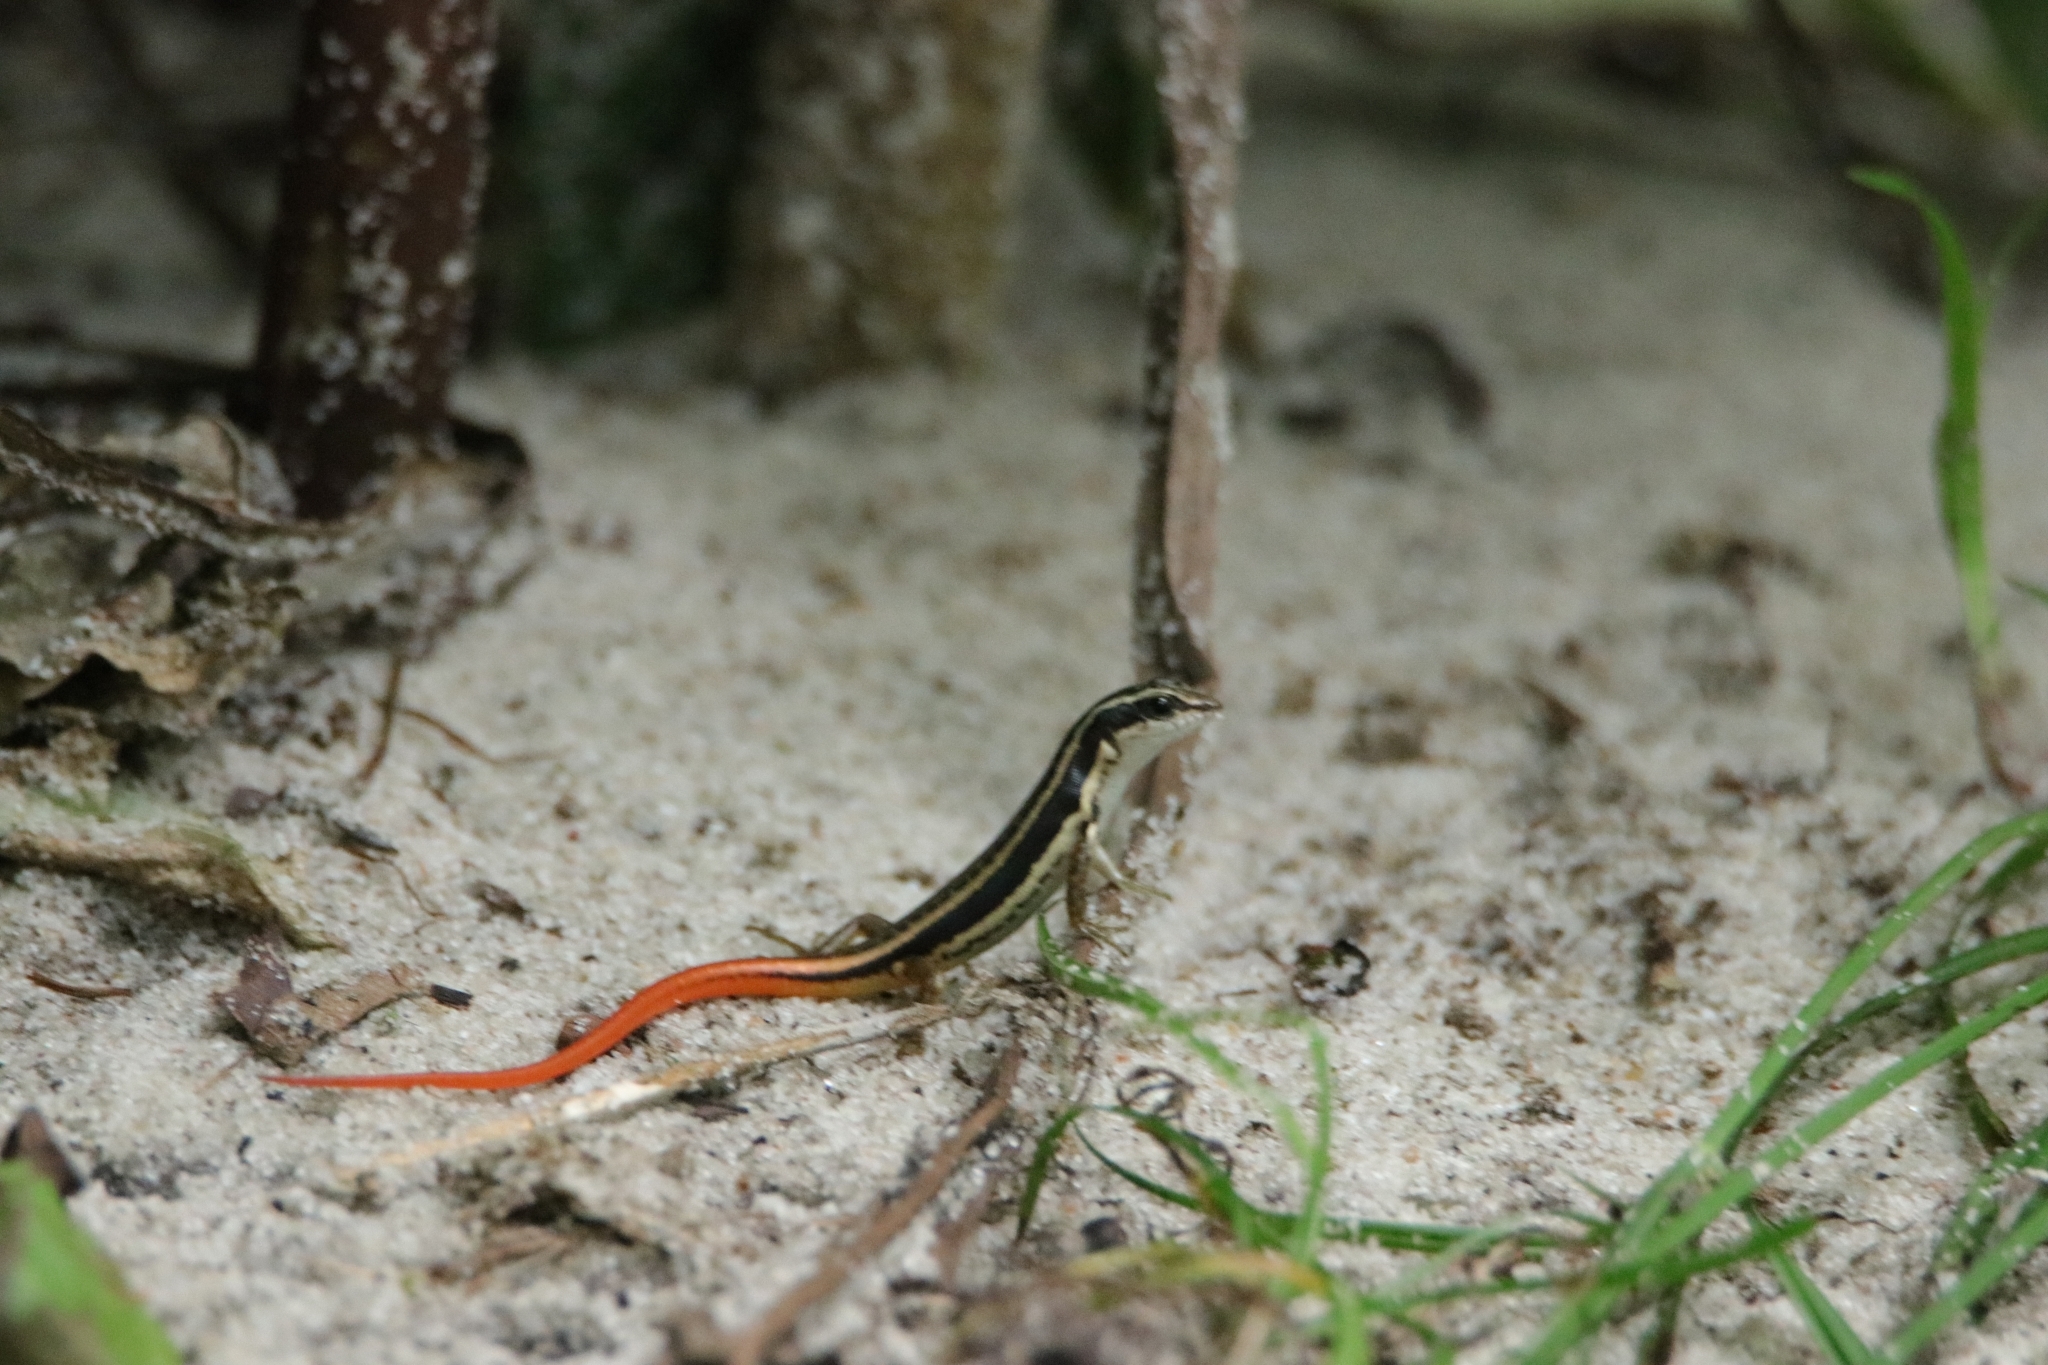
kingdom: Animalia
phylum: Chordata
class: Squamata
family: Scincidae
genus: Sphenomorphus
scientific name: Sphenomorphus dussumieri
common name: Dussumier's forest skink
